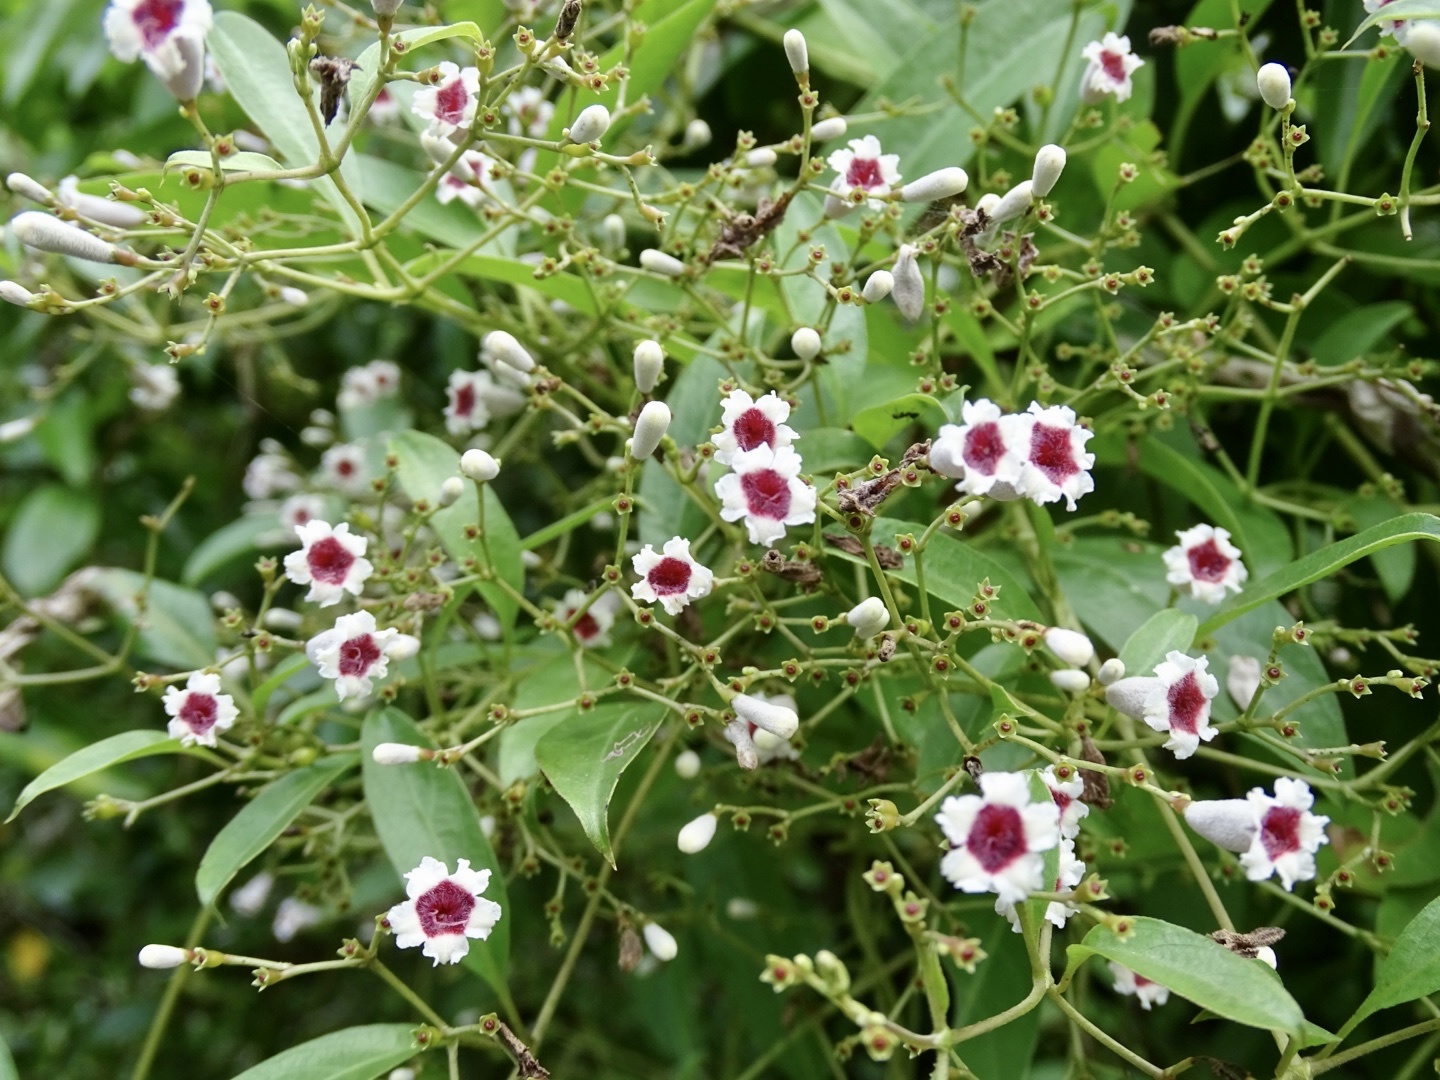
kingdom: Plantae
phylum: Tracheophyta
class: Magnoliopsida
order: Gentianales
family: Rubiaceae
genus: Paederia
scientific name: Paederia foetida
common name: Stinkvine
